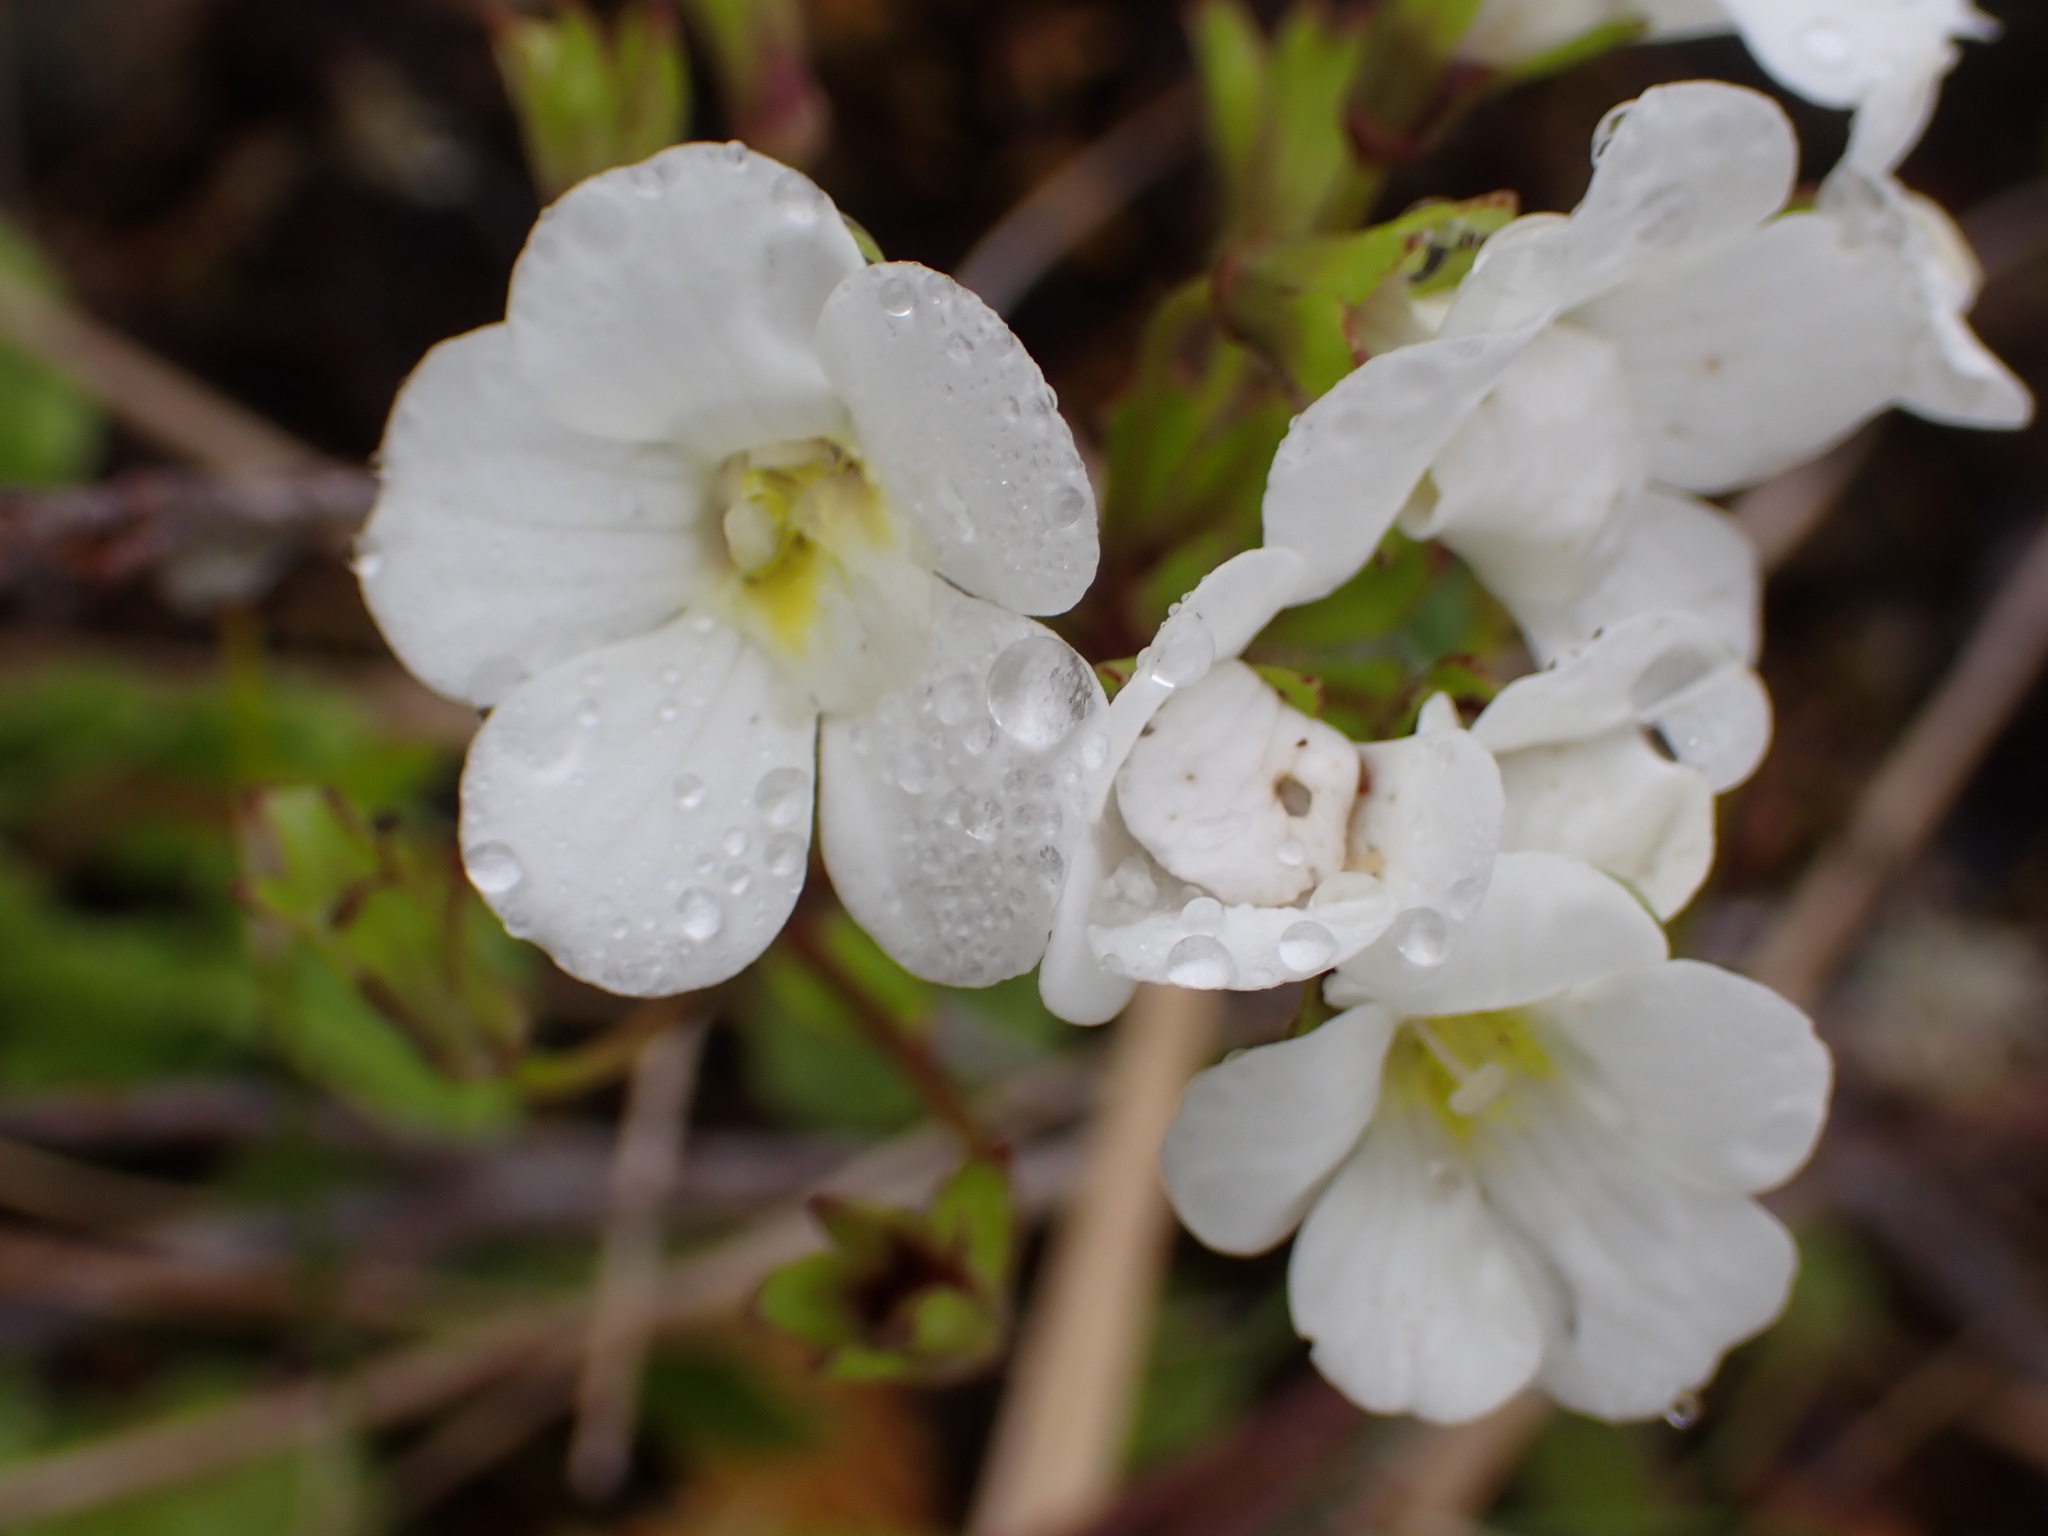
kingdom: Plantae
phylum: Tracheophyta
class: Magnoliopsida
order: Lamiales
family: Plantaginaceae
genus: Ourisia
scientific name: Ourisia macrocarpa
